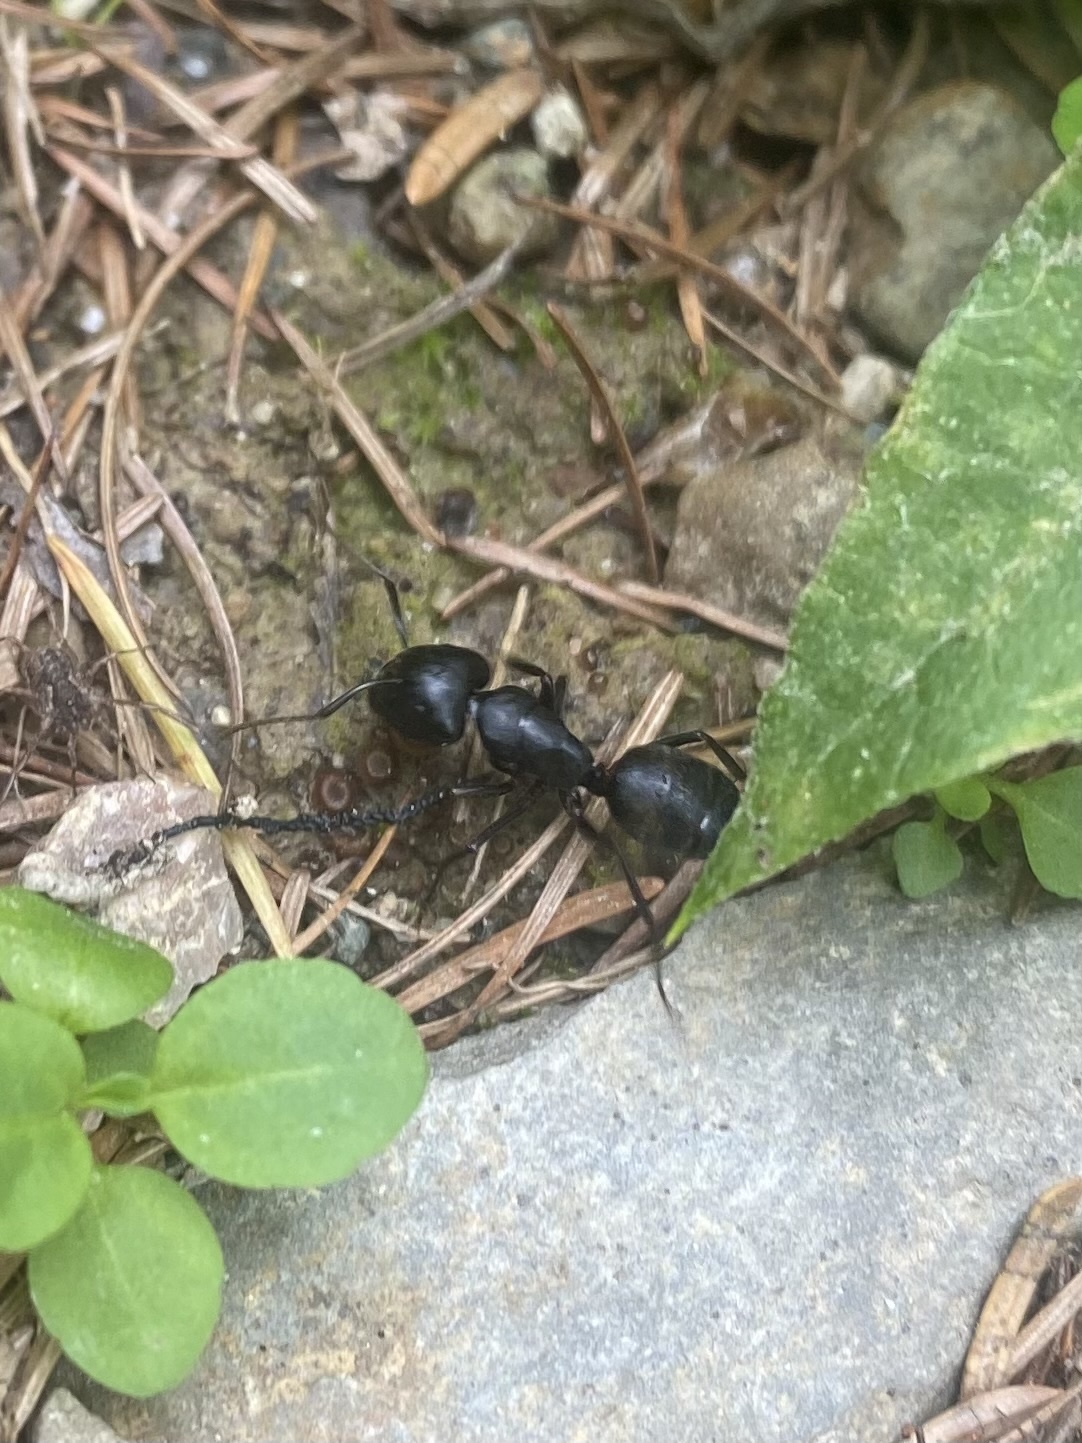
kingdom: Animalia
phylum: Arthropoda
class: Insecta
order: Hymenoptera
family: Formicidae
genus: Camponotus
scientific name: Camponotus japonicus
